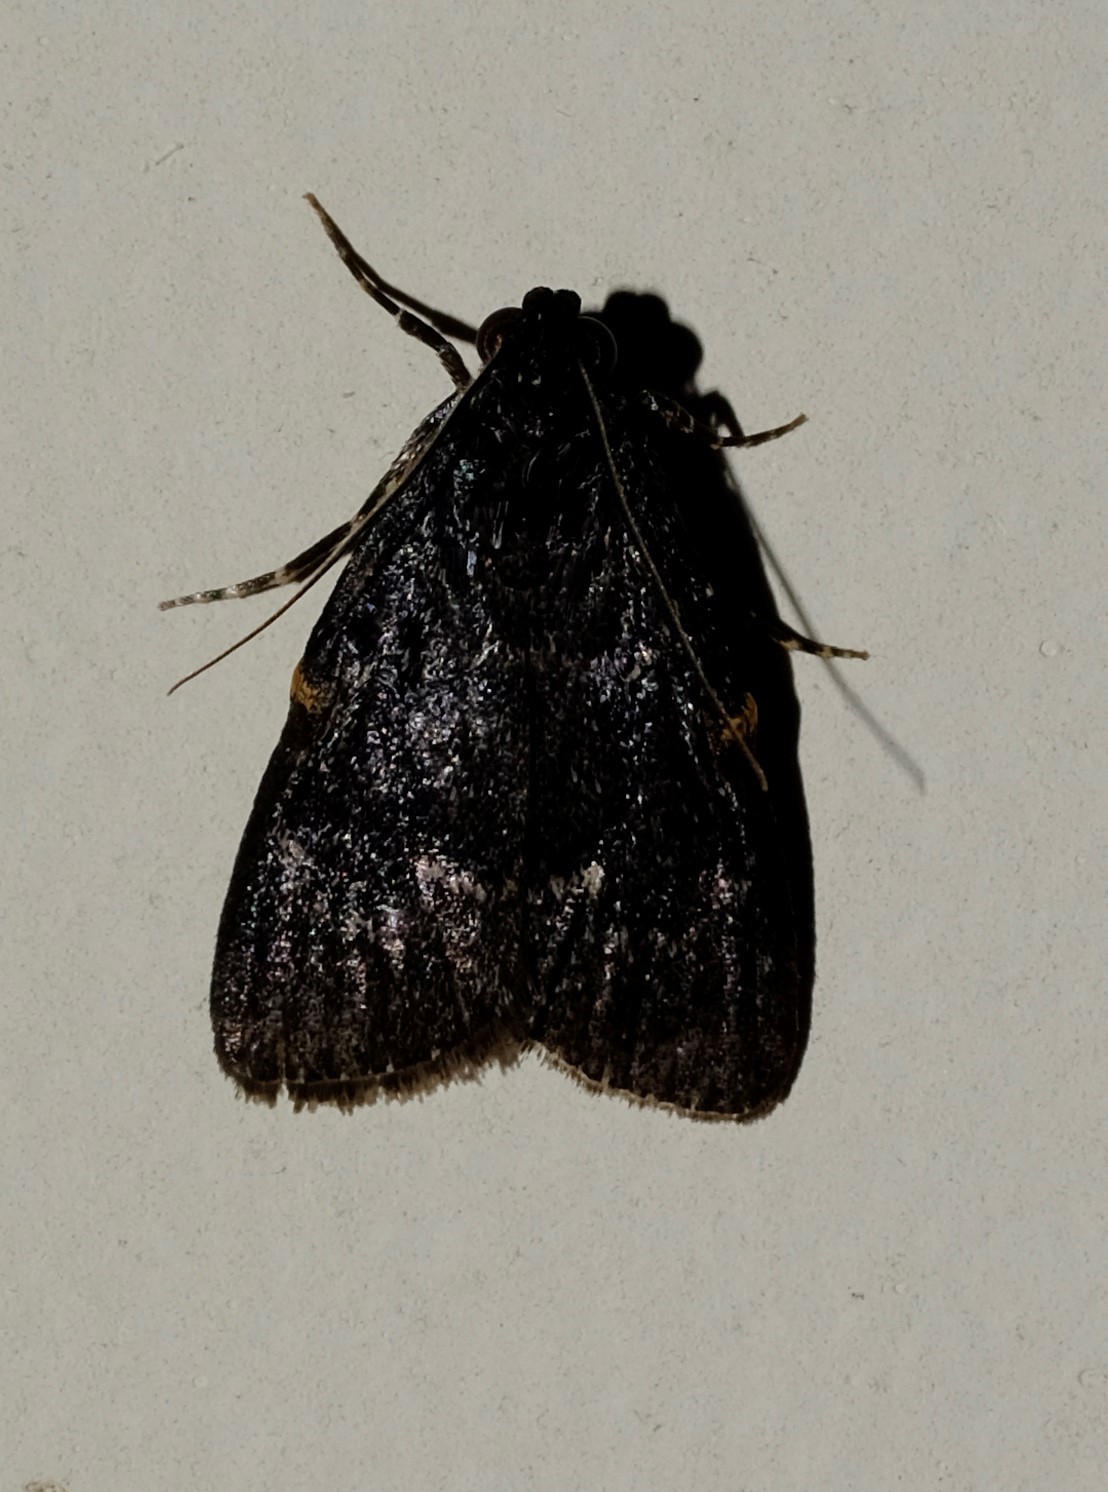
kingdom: Animalia
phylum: Arthropoda
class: Insecta
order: Lepidoptera
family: Pyralidae
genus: Stericta
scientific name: Stericta carbonalis
